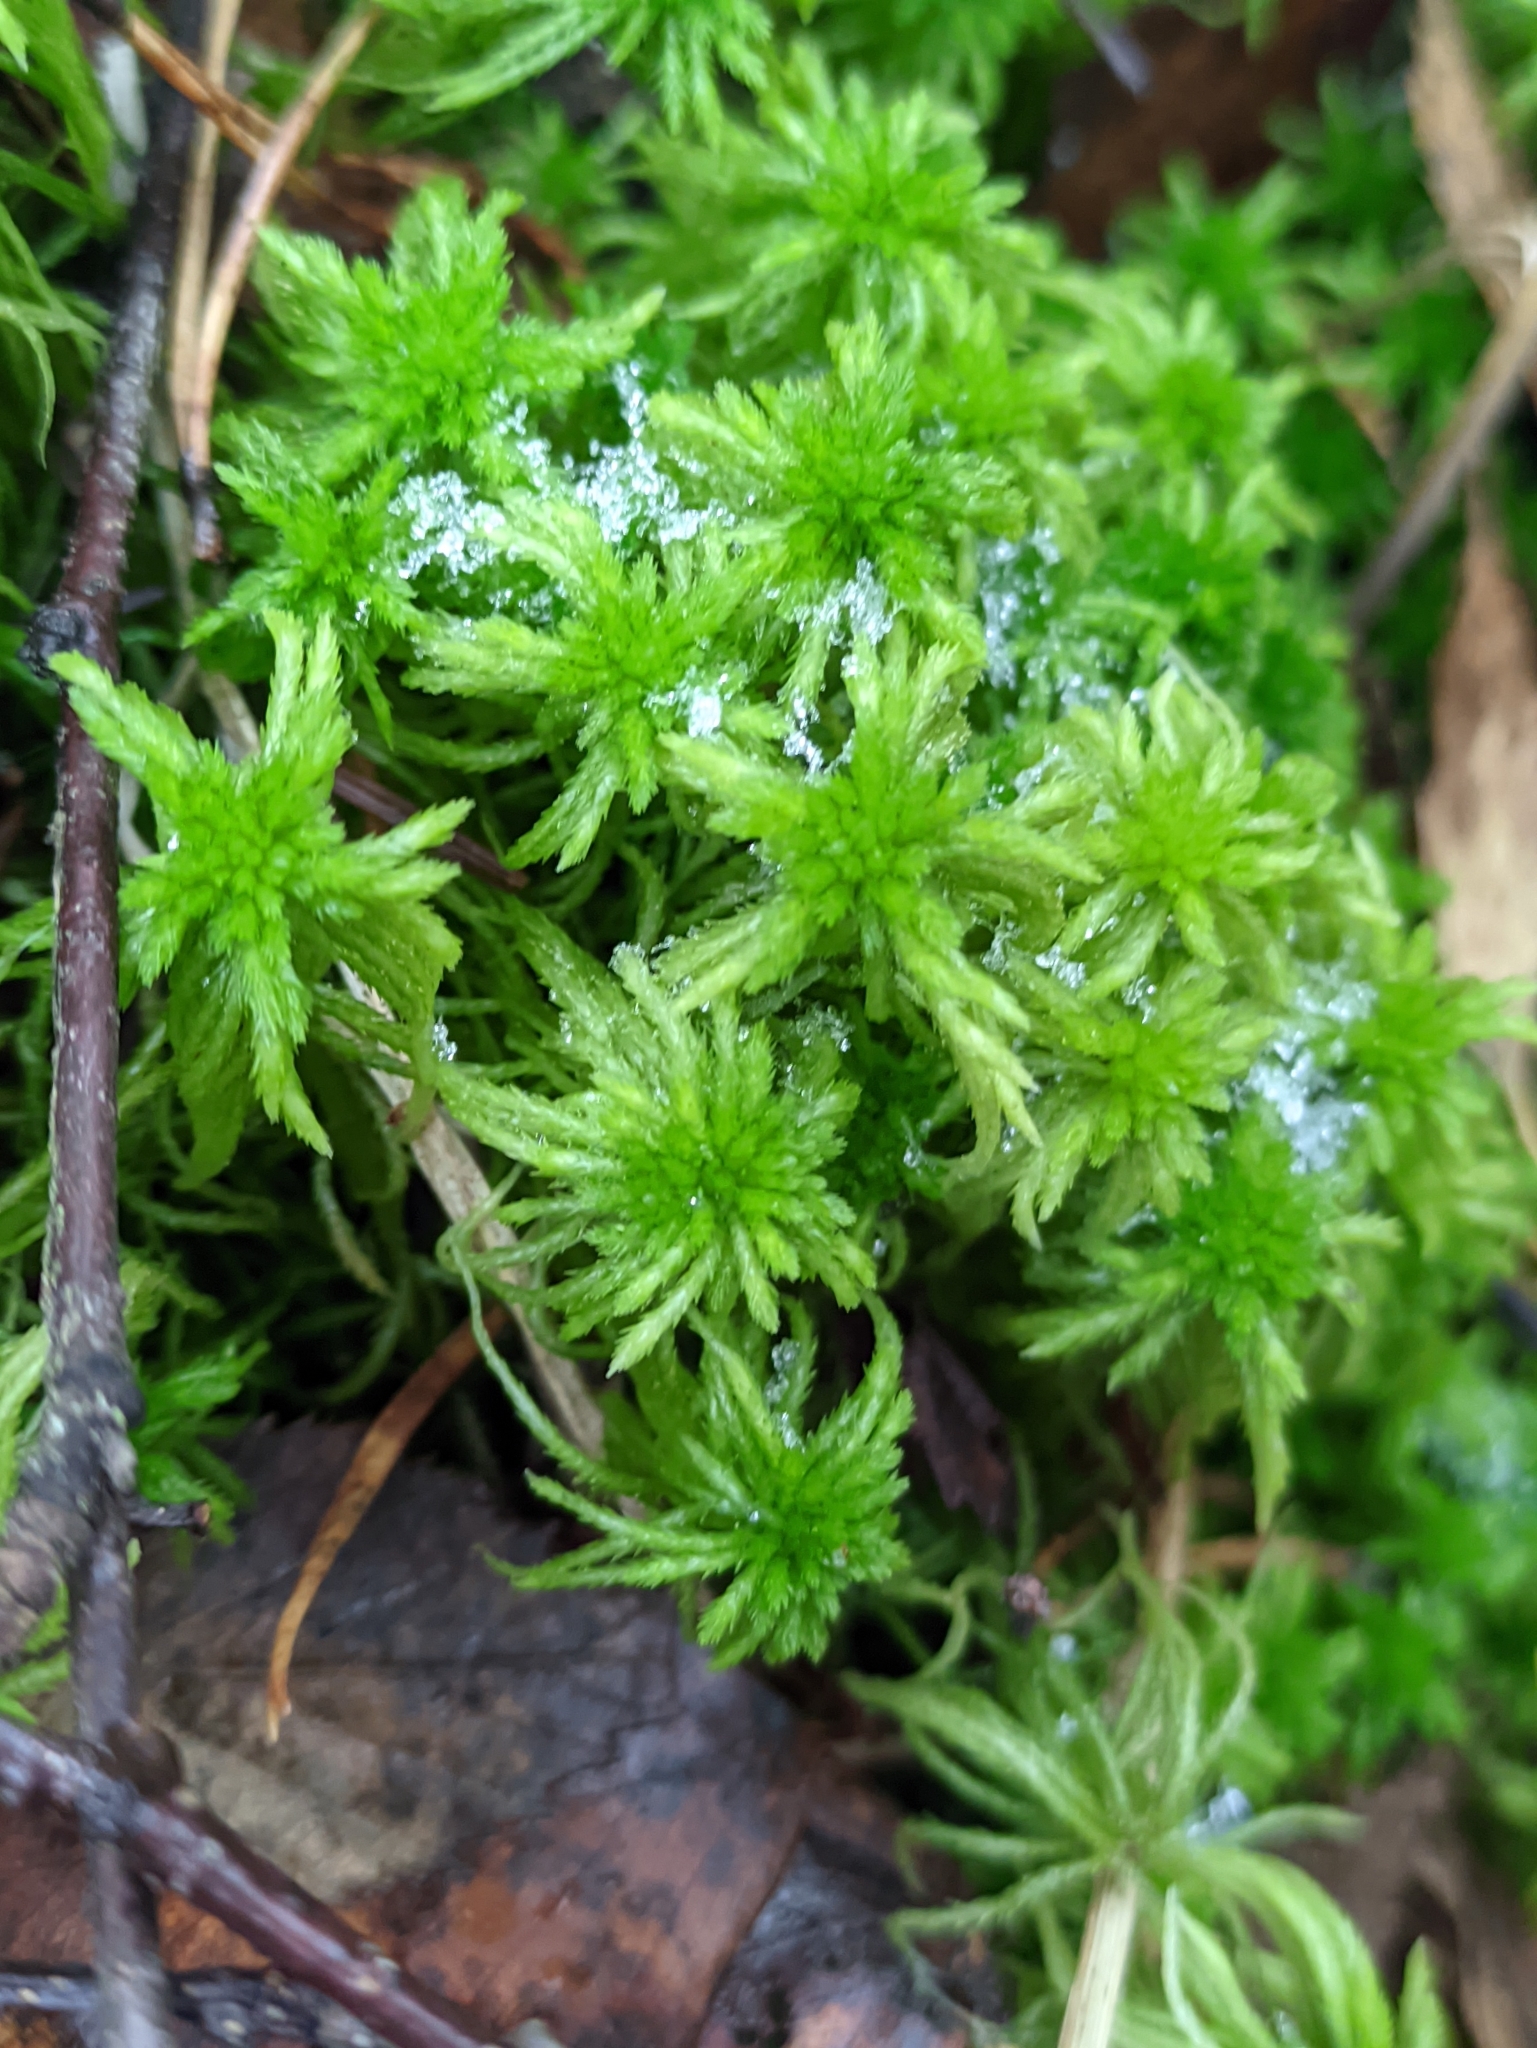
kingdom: Plantae
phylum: Bryophyta
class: Sphagnopsida
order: Sphagnales
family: Sphagnaceae
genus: Sphagnum
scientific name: Sphagnum girgensohnii
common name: Girgensohn's peat moss
